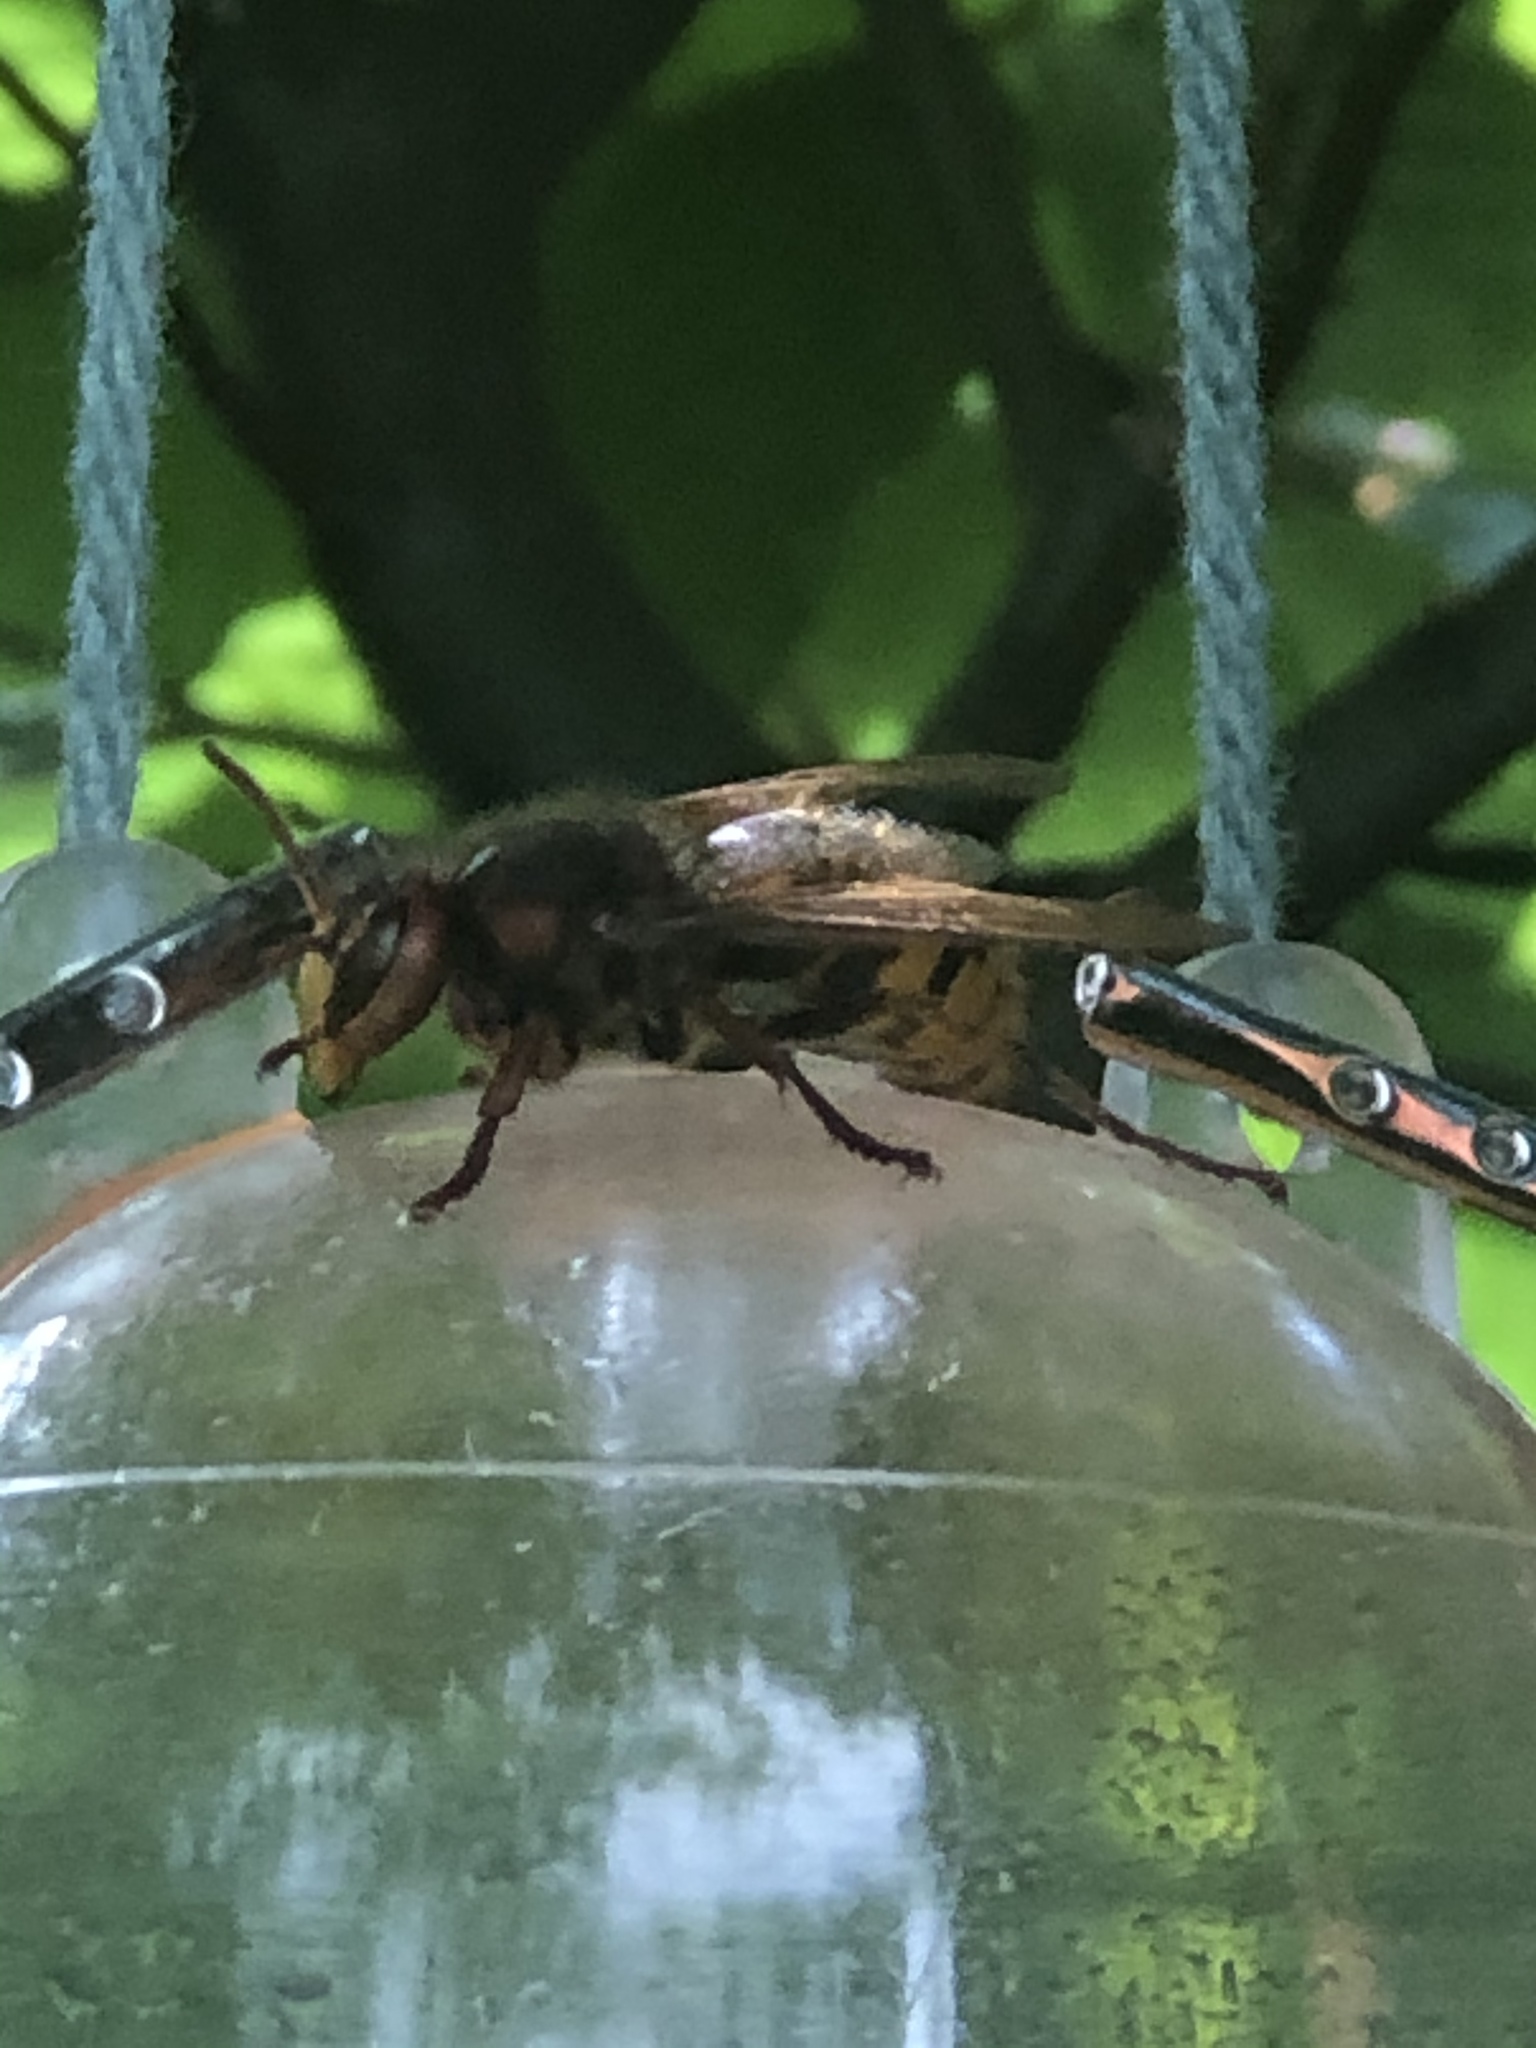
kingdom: Animalia
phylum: Arthropoda
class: Insecta
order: Hymenoptera
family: Vespidae
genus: Vespa
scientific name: Vespa crabro
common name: Hornet
